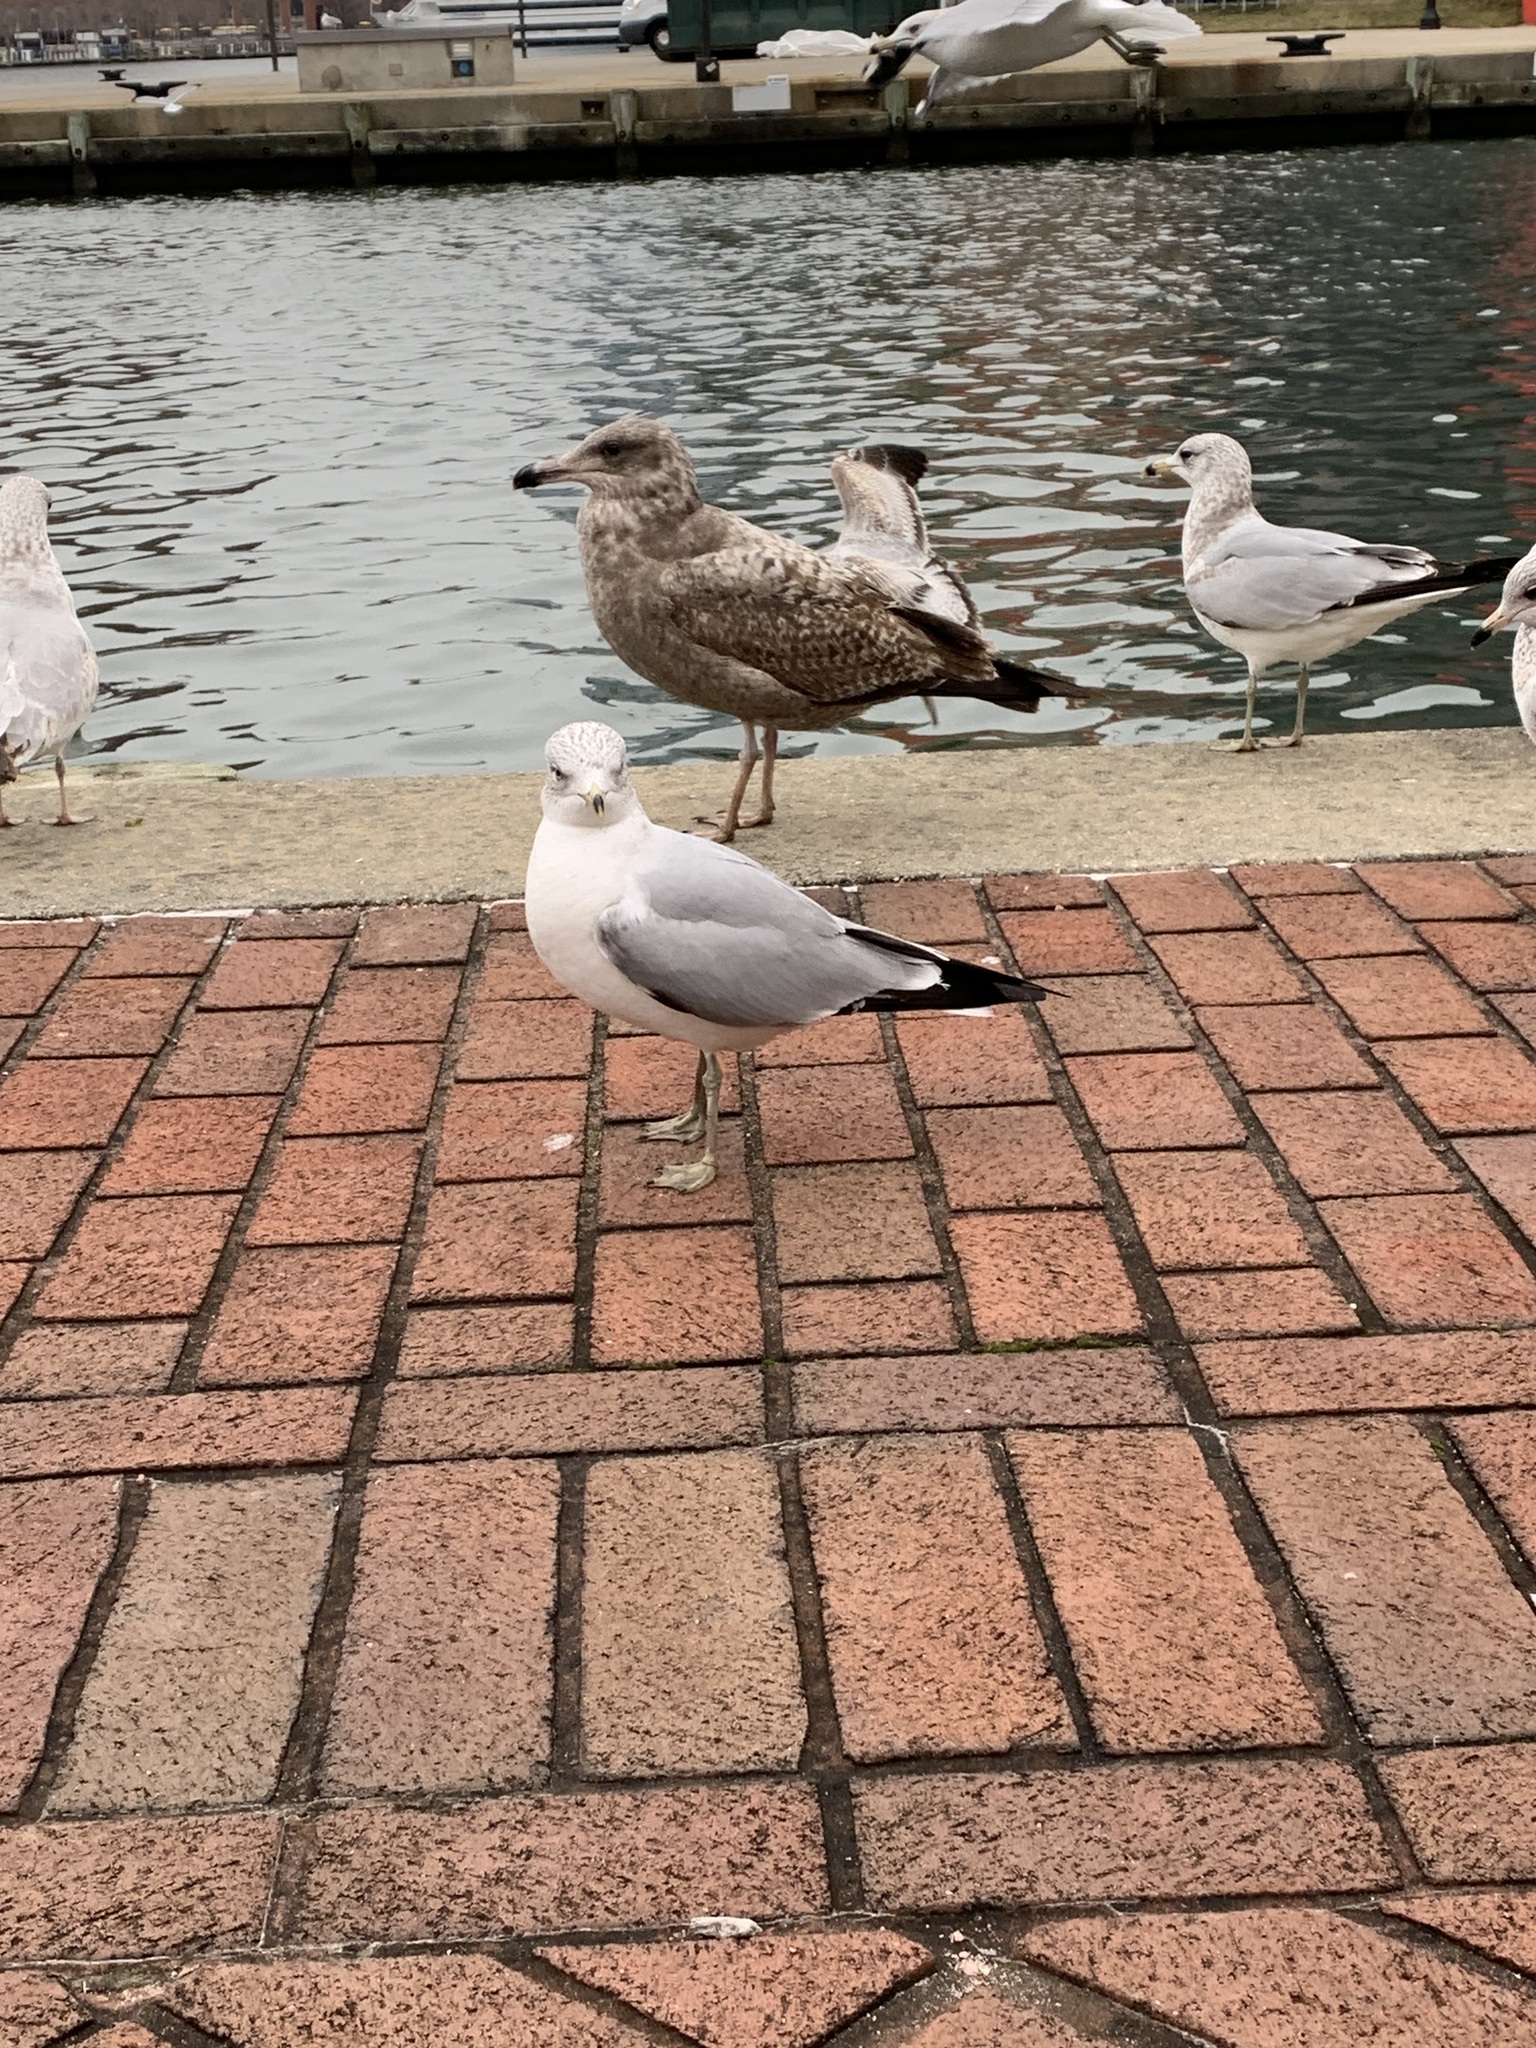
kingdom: Animalia
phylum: Chordata
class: Aves
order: Charadriiformes
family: Laridae
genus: Larus
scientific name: Larus argentatus
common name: Herring gull
